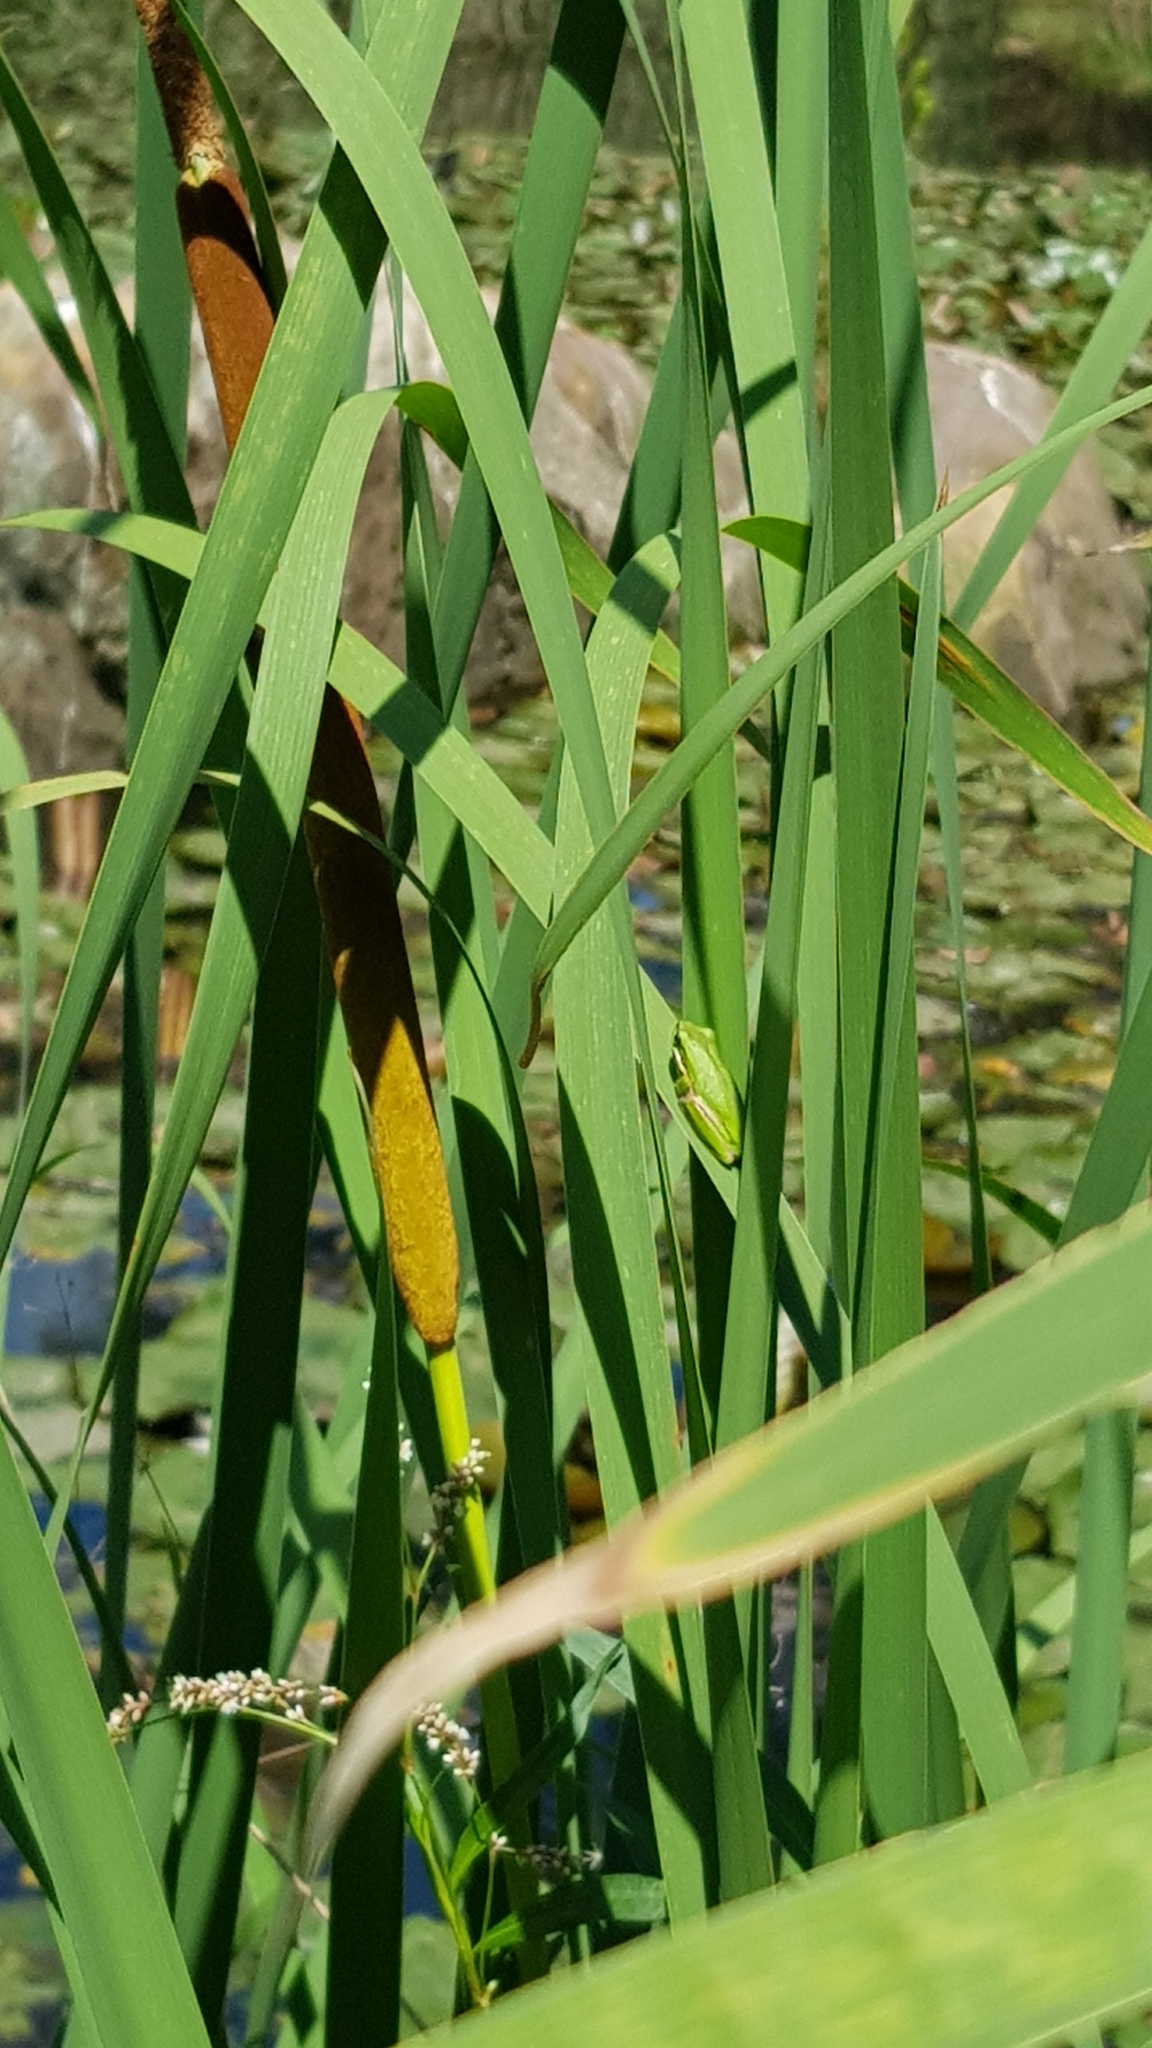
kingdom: Animalia
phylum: Chordata
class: Amphibia
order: Anura
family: Pelodryadidae
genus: Litoria
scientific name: Litoria fallax
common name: Eastern dwarf treefrog
